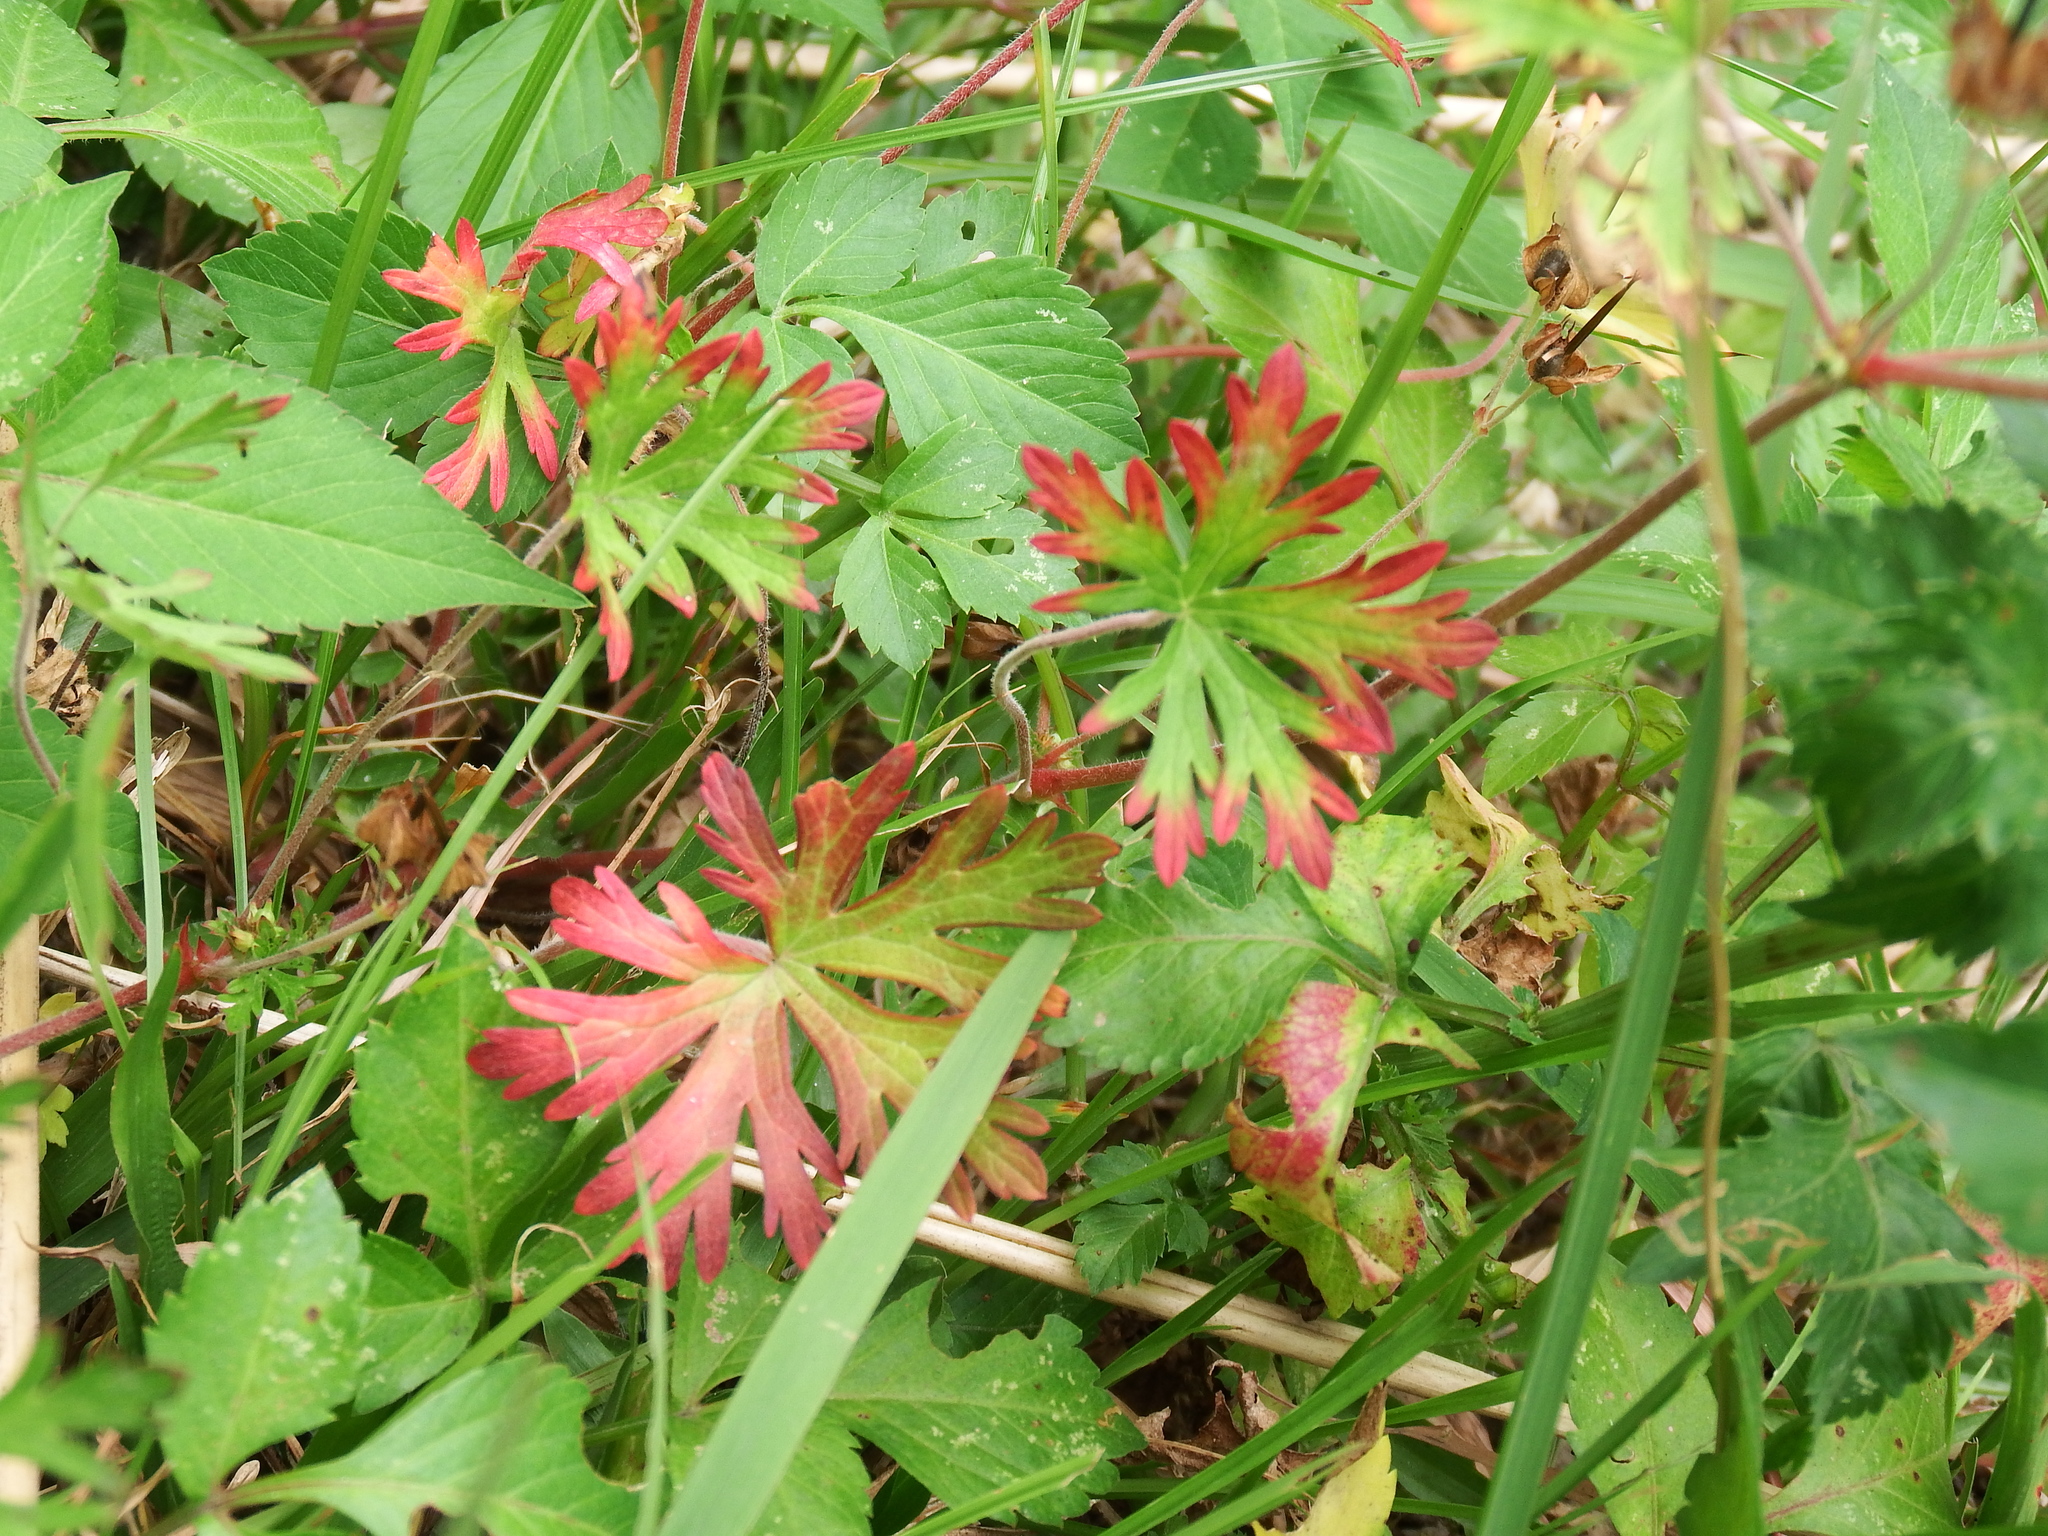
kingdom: Plantae
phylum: Tracheophyta
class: Magnoliopsida
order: Geraniales
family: Geraniaceae
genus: Geranium
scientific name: Geranium carolinianum
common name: Carolina crane's-bill
